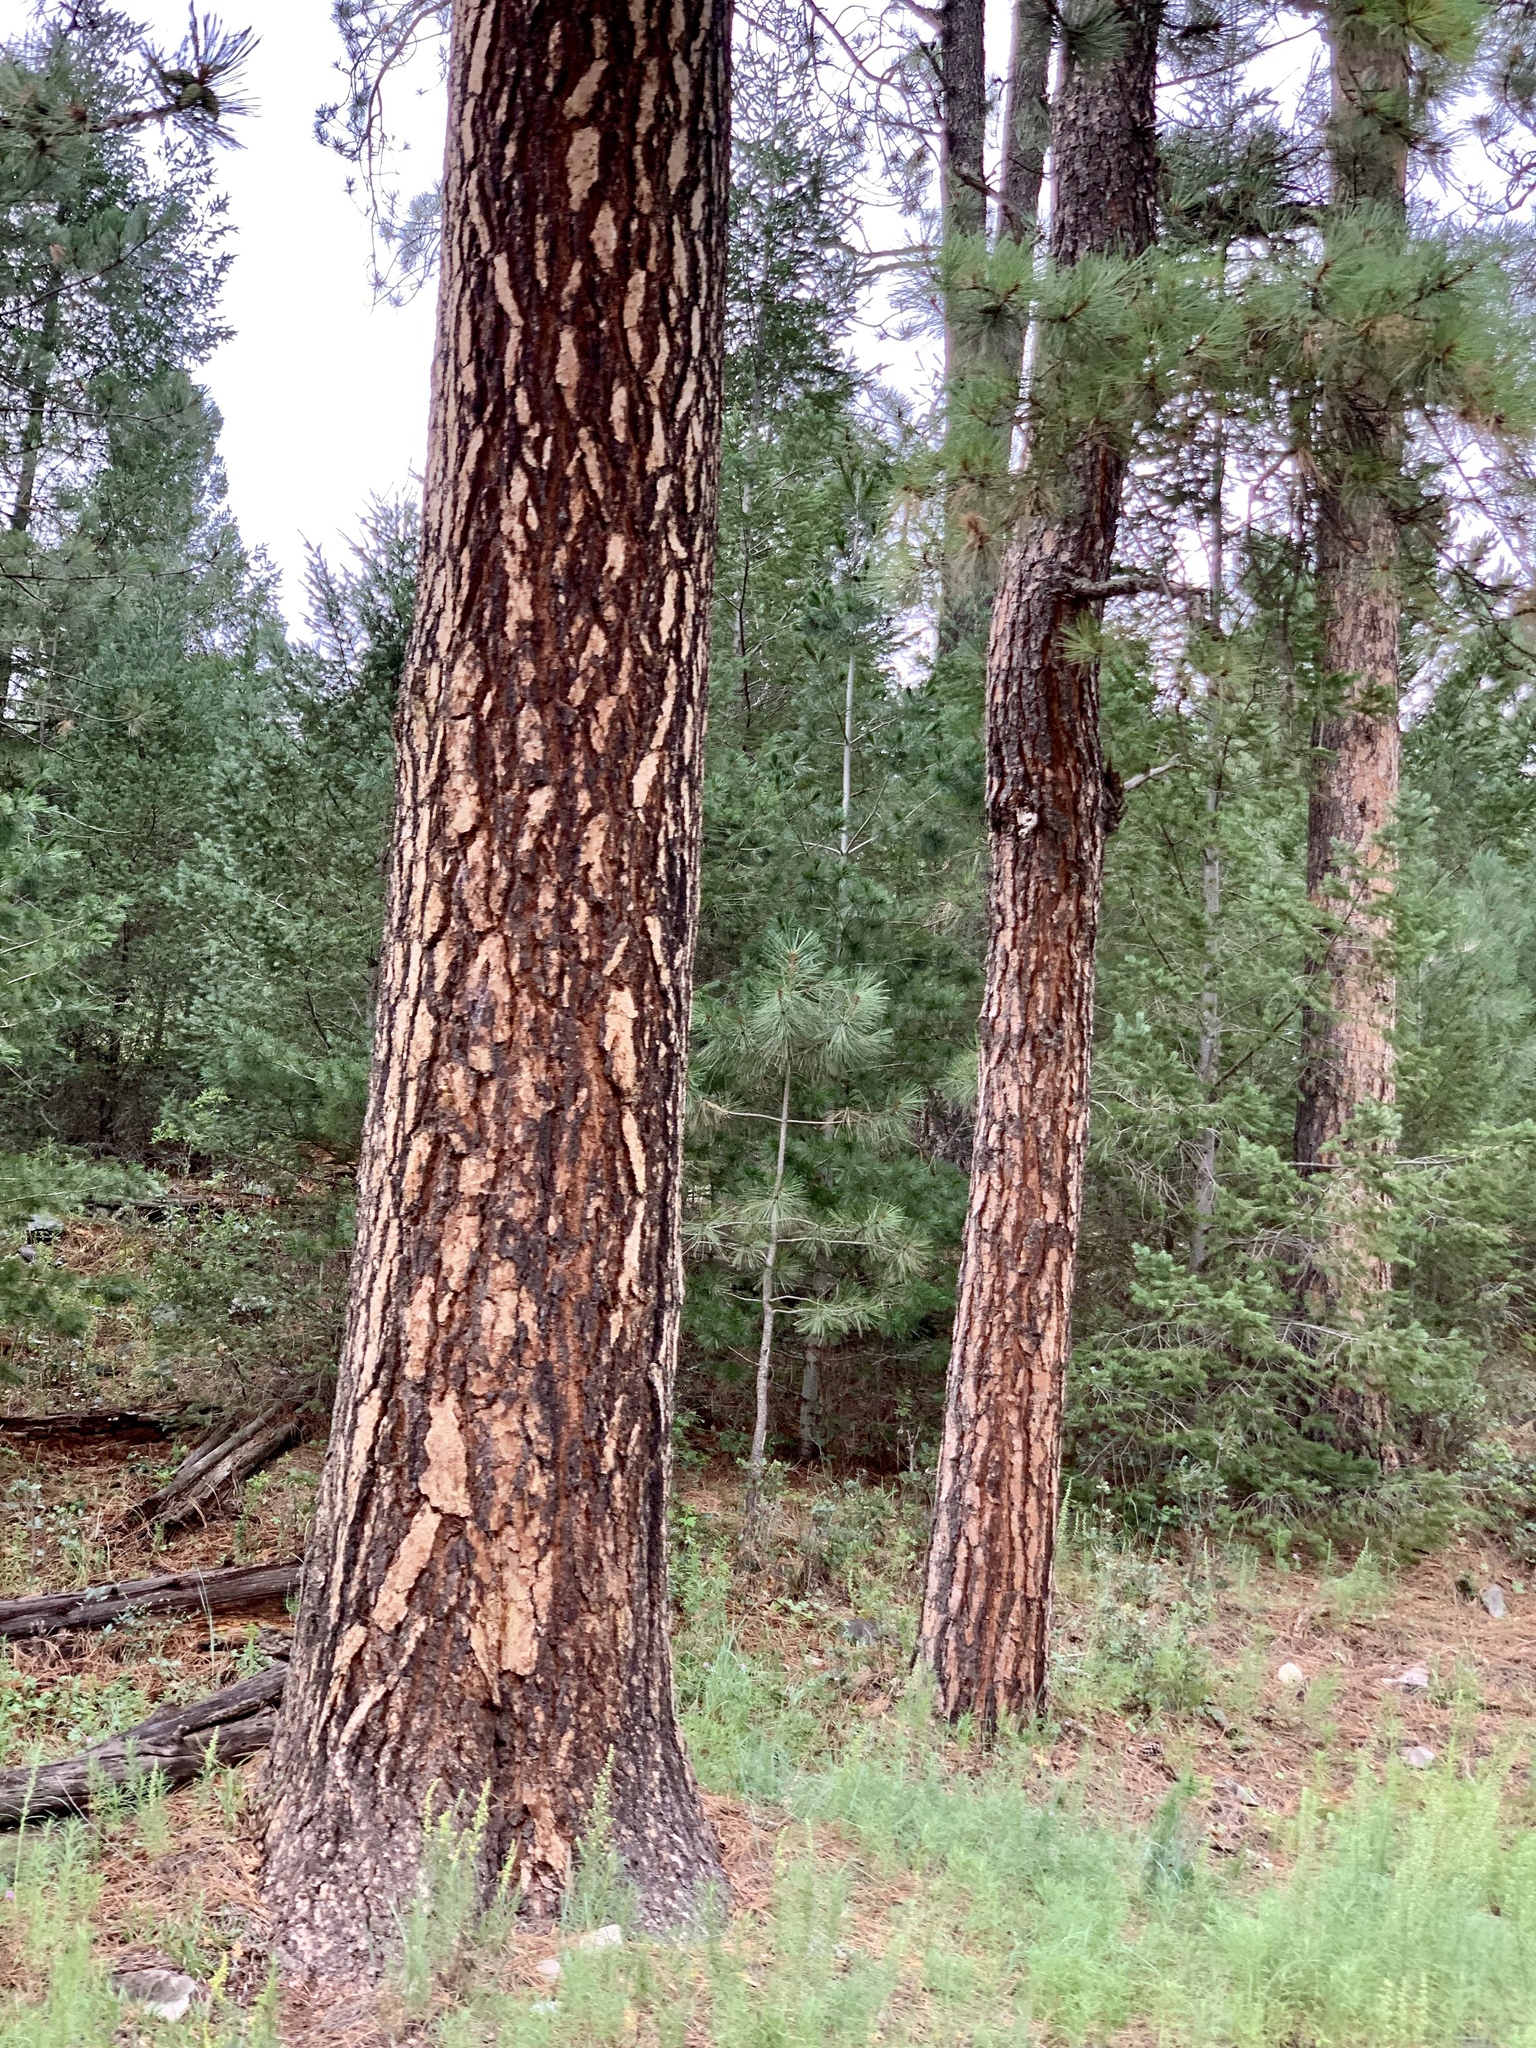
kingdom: Plantae
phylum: Tracheophyta
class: Pinopsida
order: Pinales
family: Pinaceae
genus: Pinus
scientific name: Pinus ponderosa
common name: Western yellow-pine
